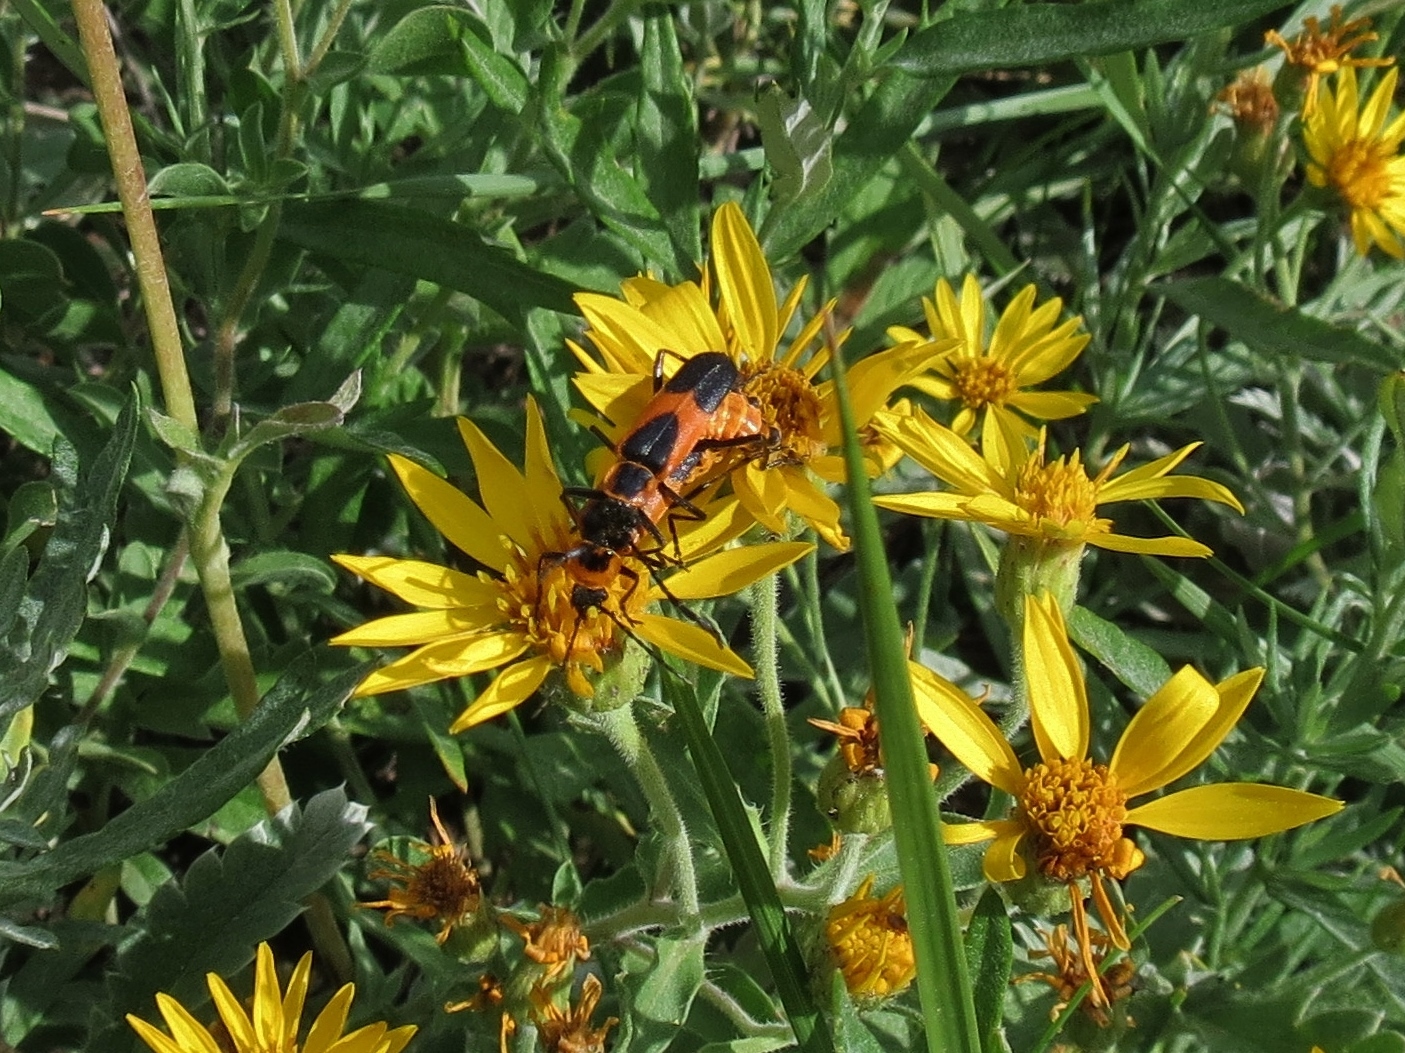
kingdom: Animalia
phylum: Arthropoda
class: Insecta
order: Coleoptera
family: Cantharidae
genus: Chauliognathus
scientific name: Chauliognathus basalis
